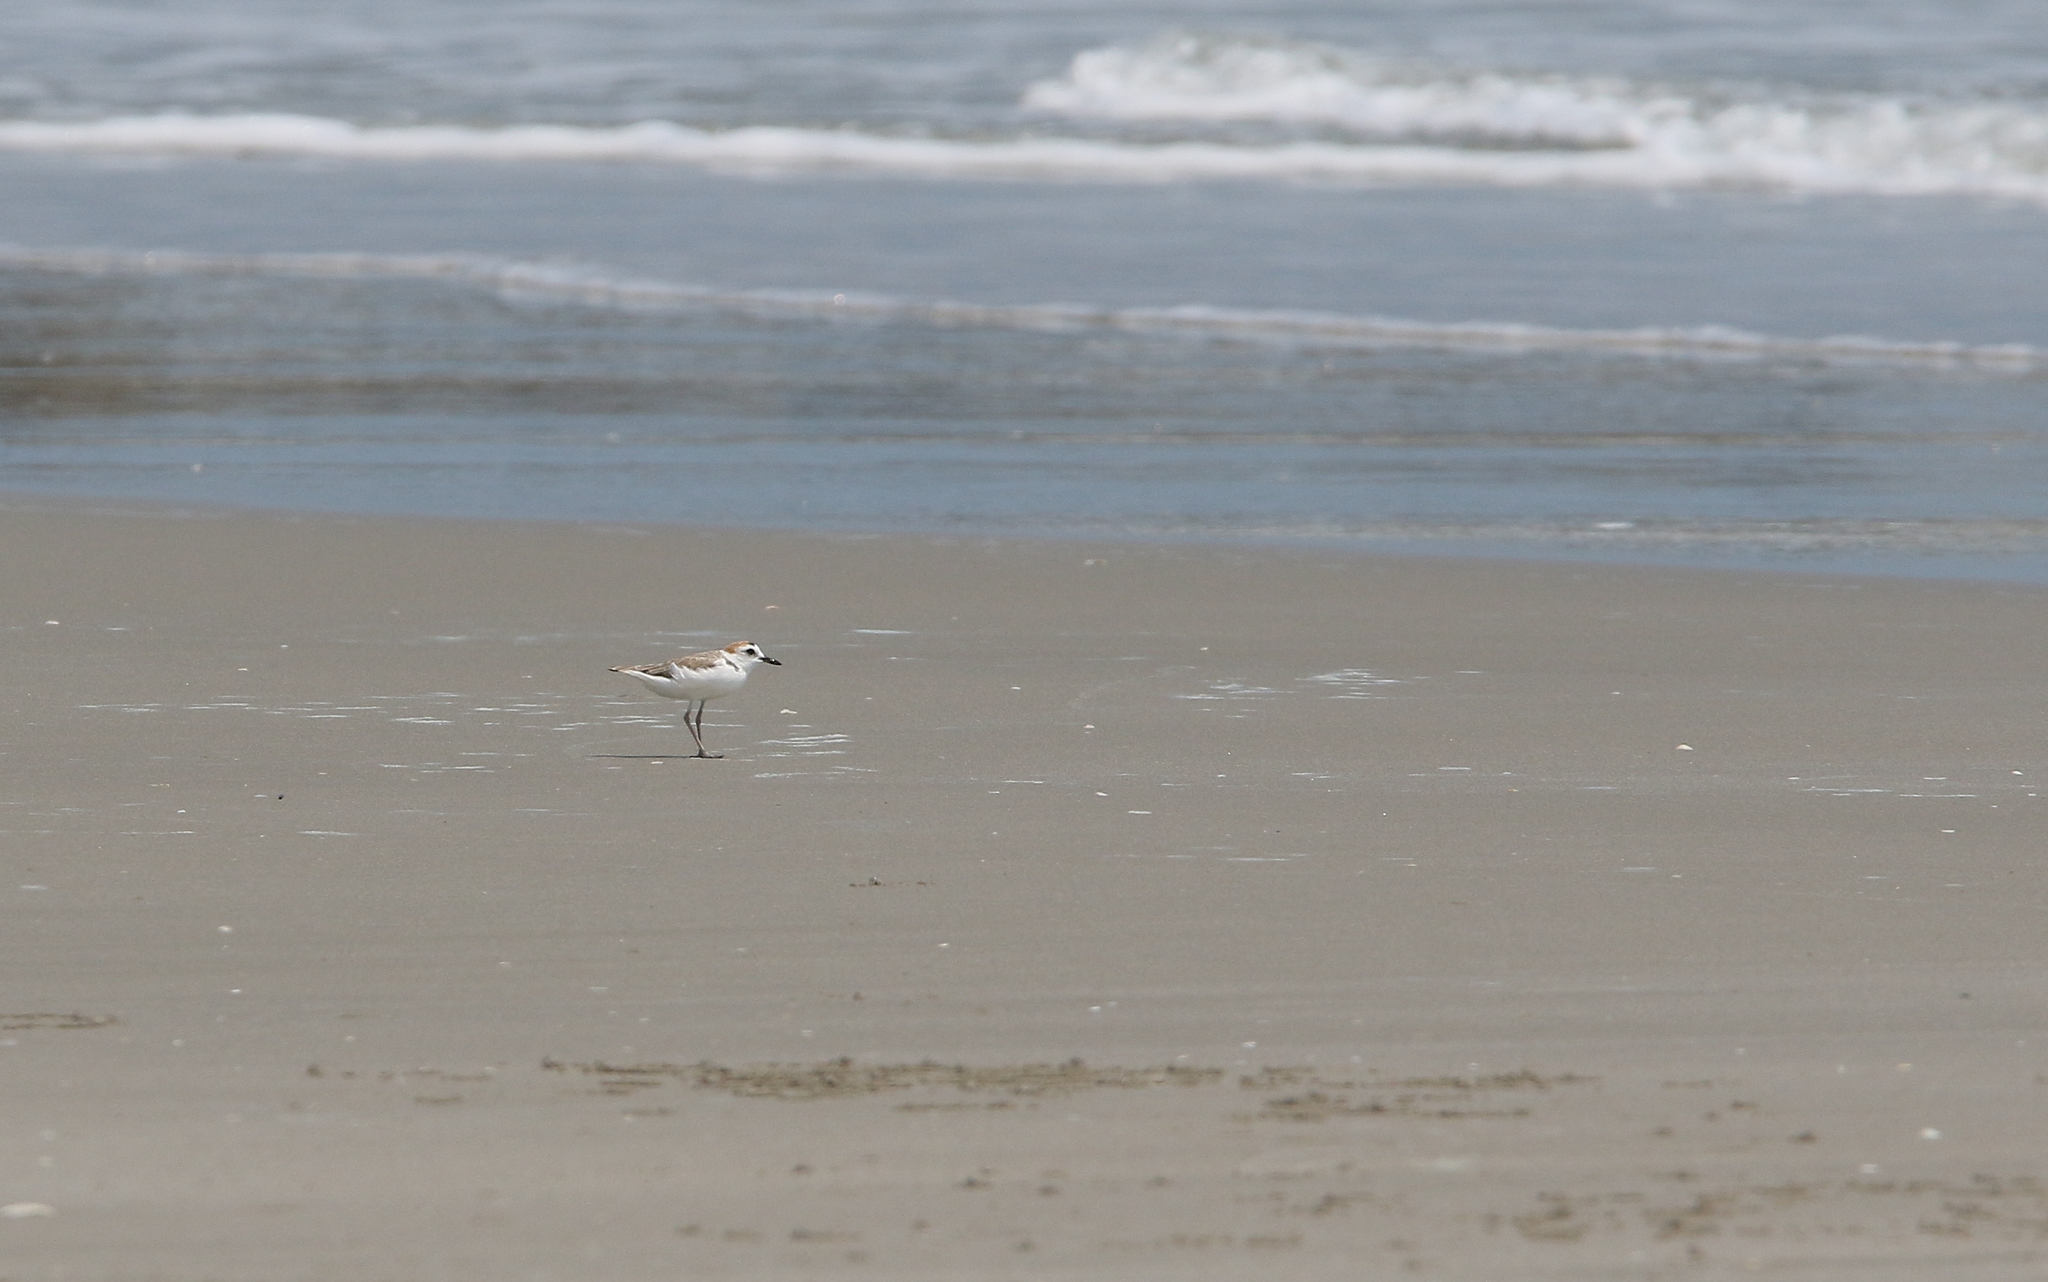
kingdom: Animalia
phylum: Chordata
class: Aves
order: Charadriiformes
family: Charadriidae
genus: Anarhynchus
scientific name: Anarhynchus
